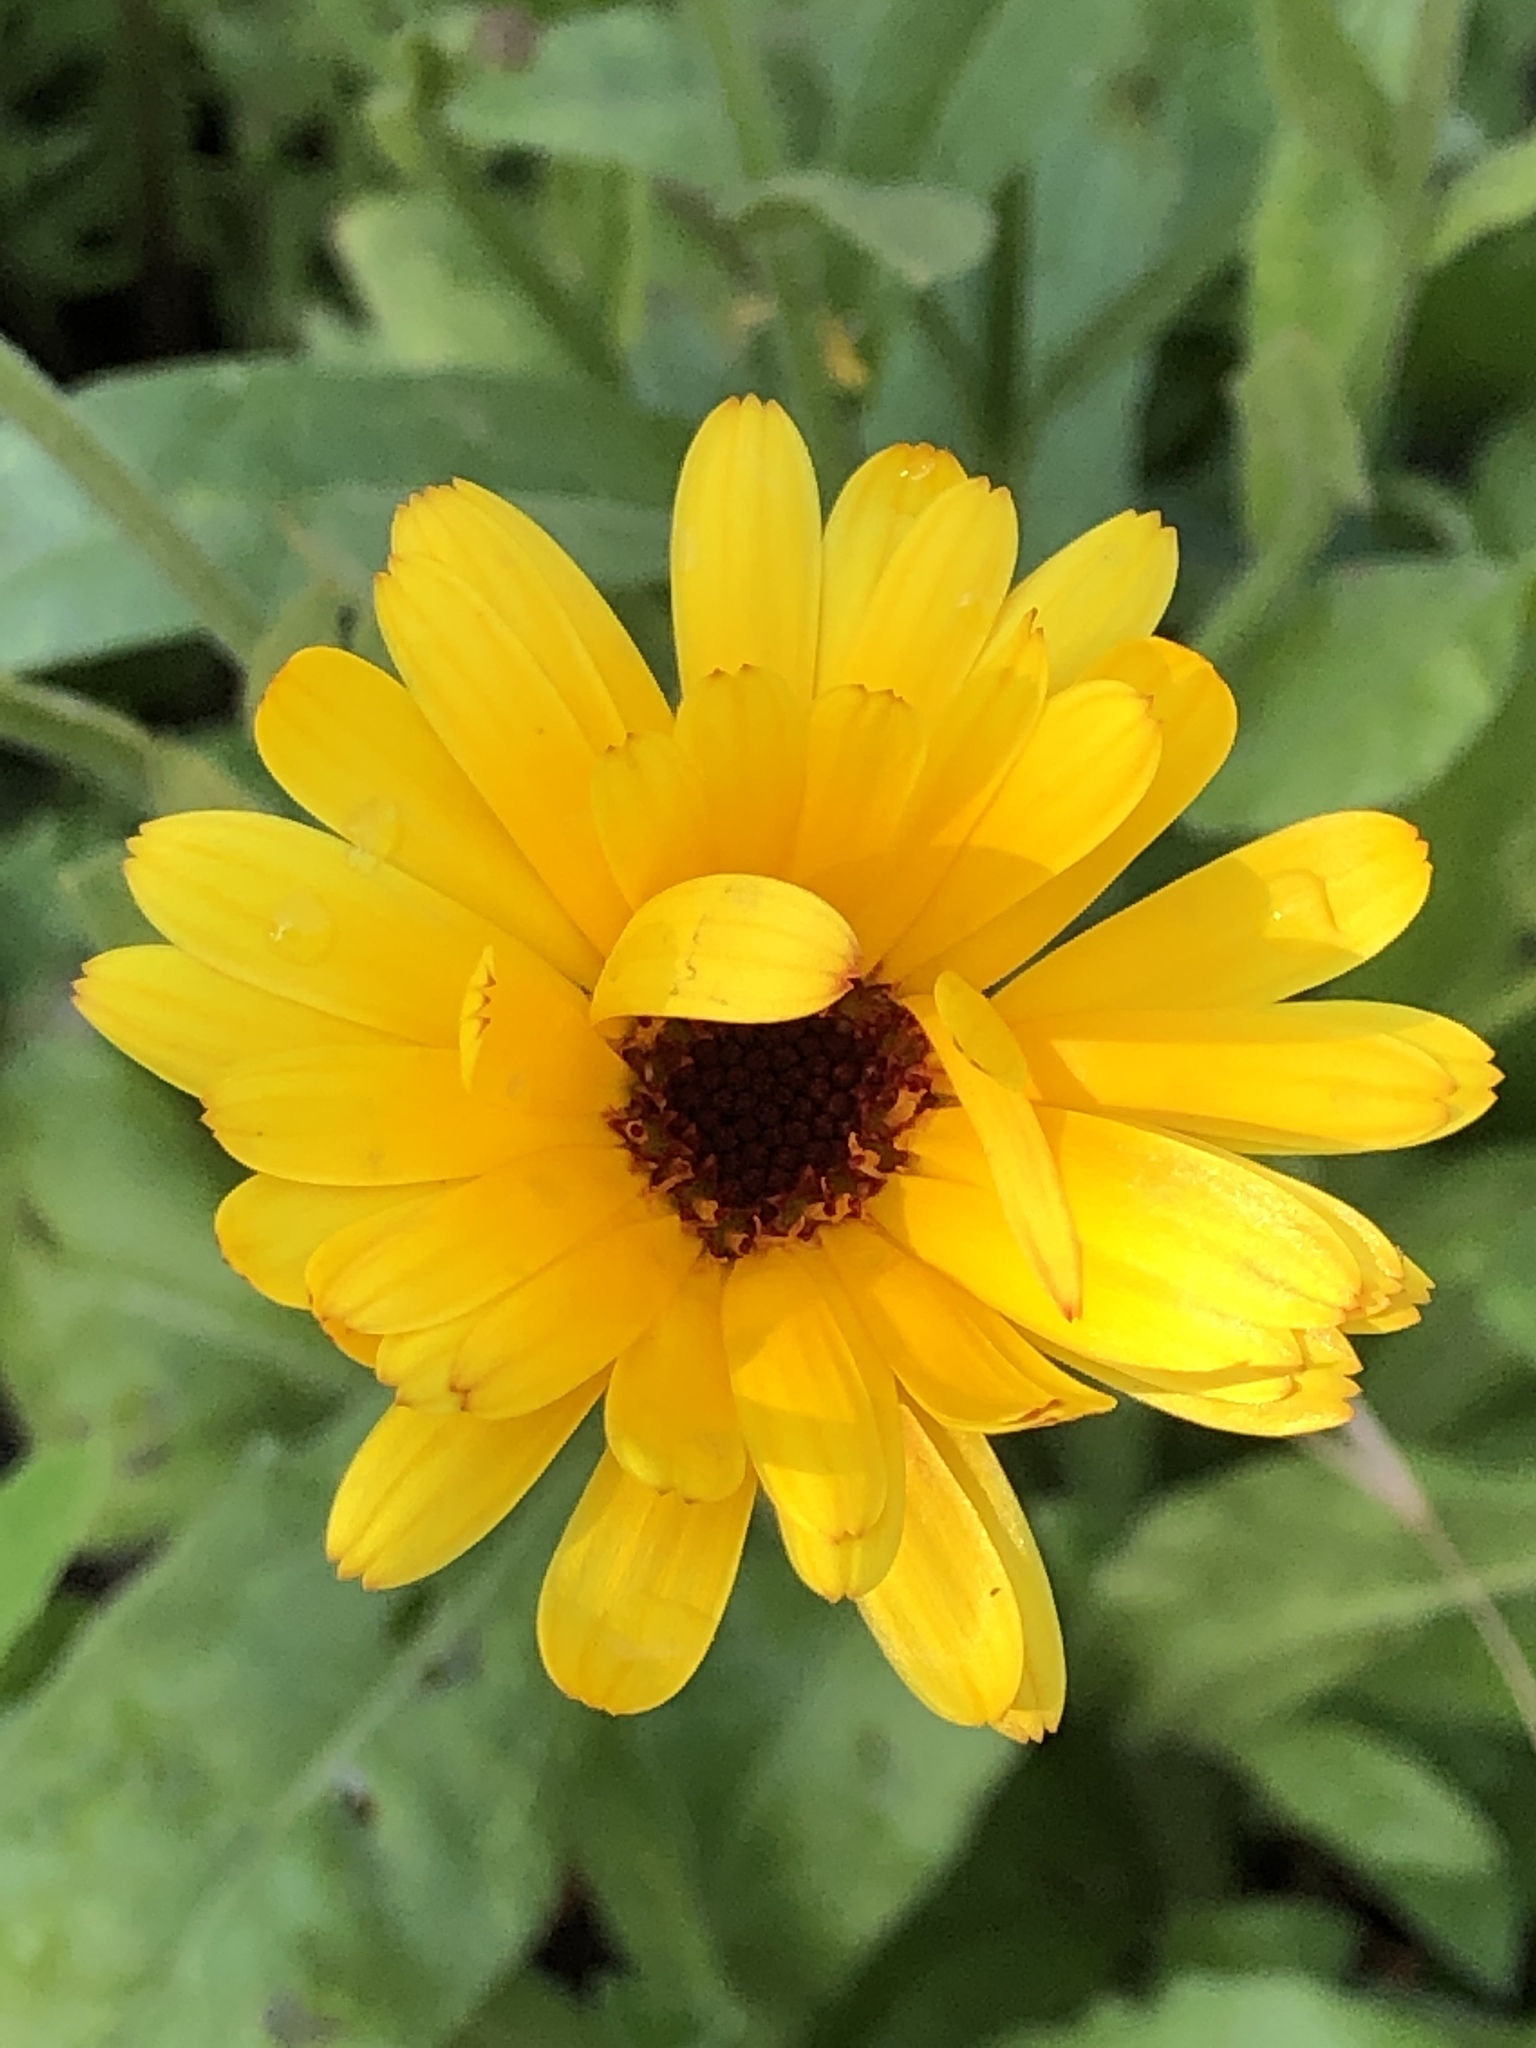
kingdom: Plantae
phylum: Tracheophyta
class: Magnoliopsida
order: Asterales
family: Asteraceae
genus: Calendula
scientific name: Calendula officinalis
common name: Pot marigold
